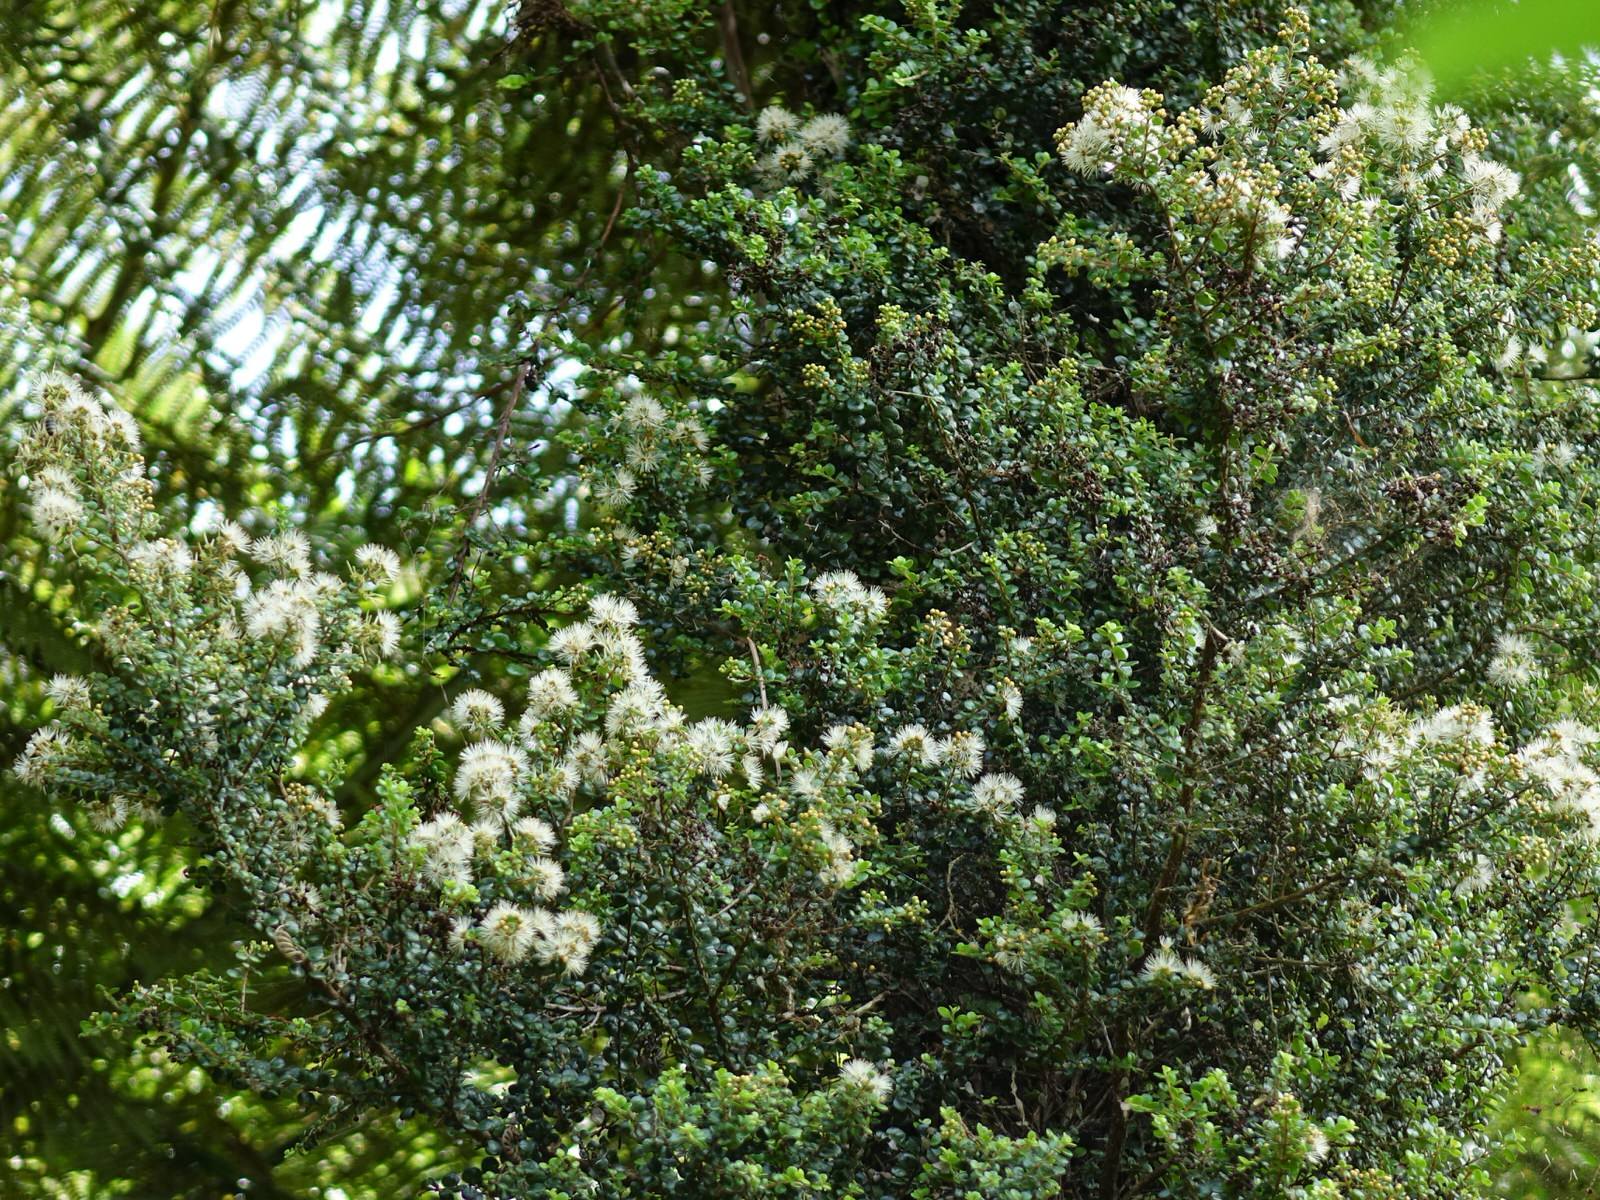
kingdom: Plantae
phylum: Tracheophyta
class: Magnoliopsida
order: Myrtales
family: Myrtaceae
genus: Metrosideros
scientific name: Metrosideros perforata
